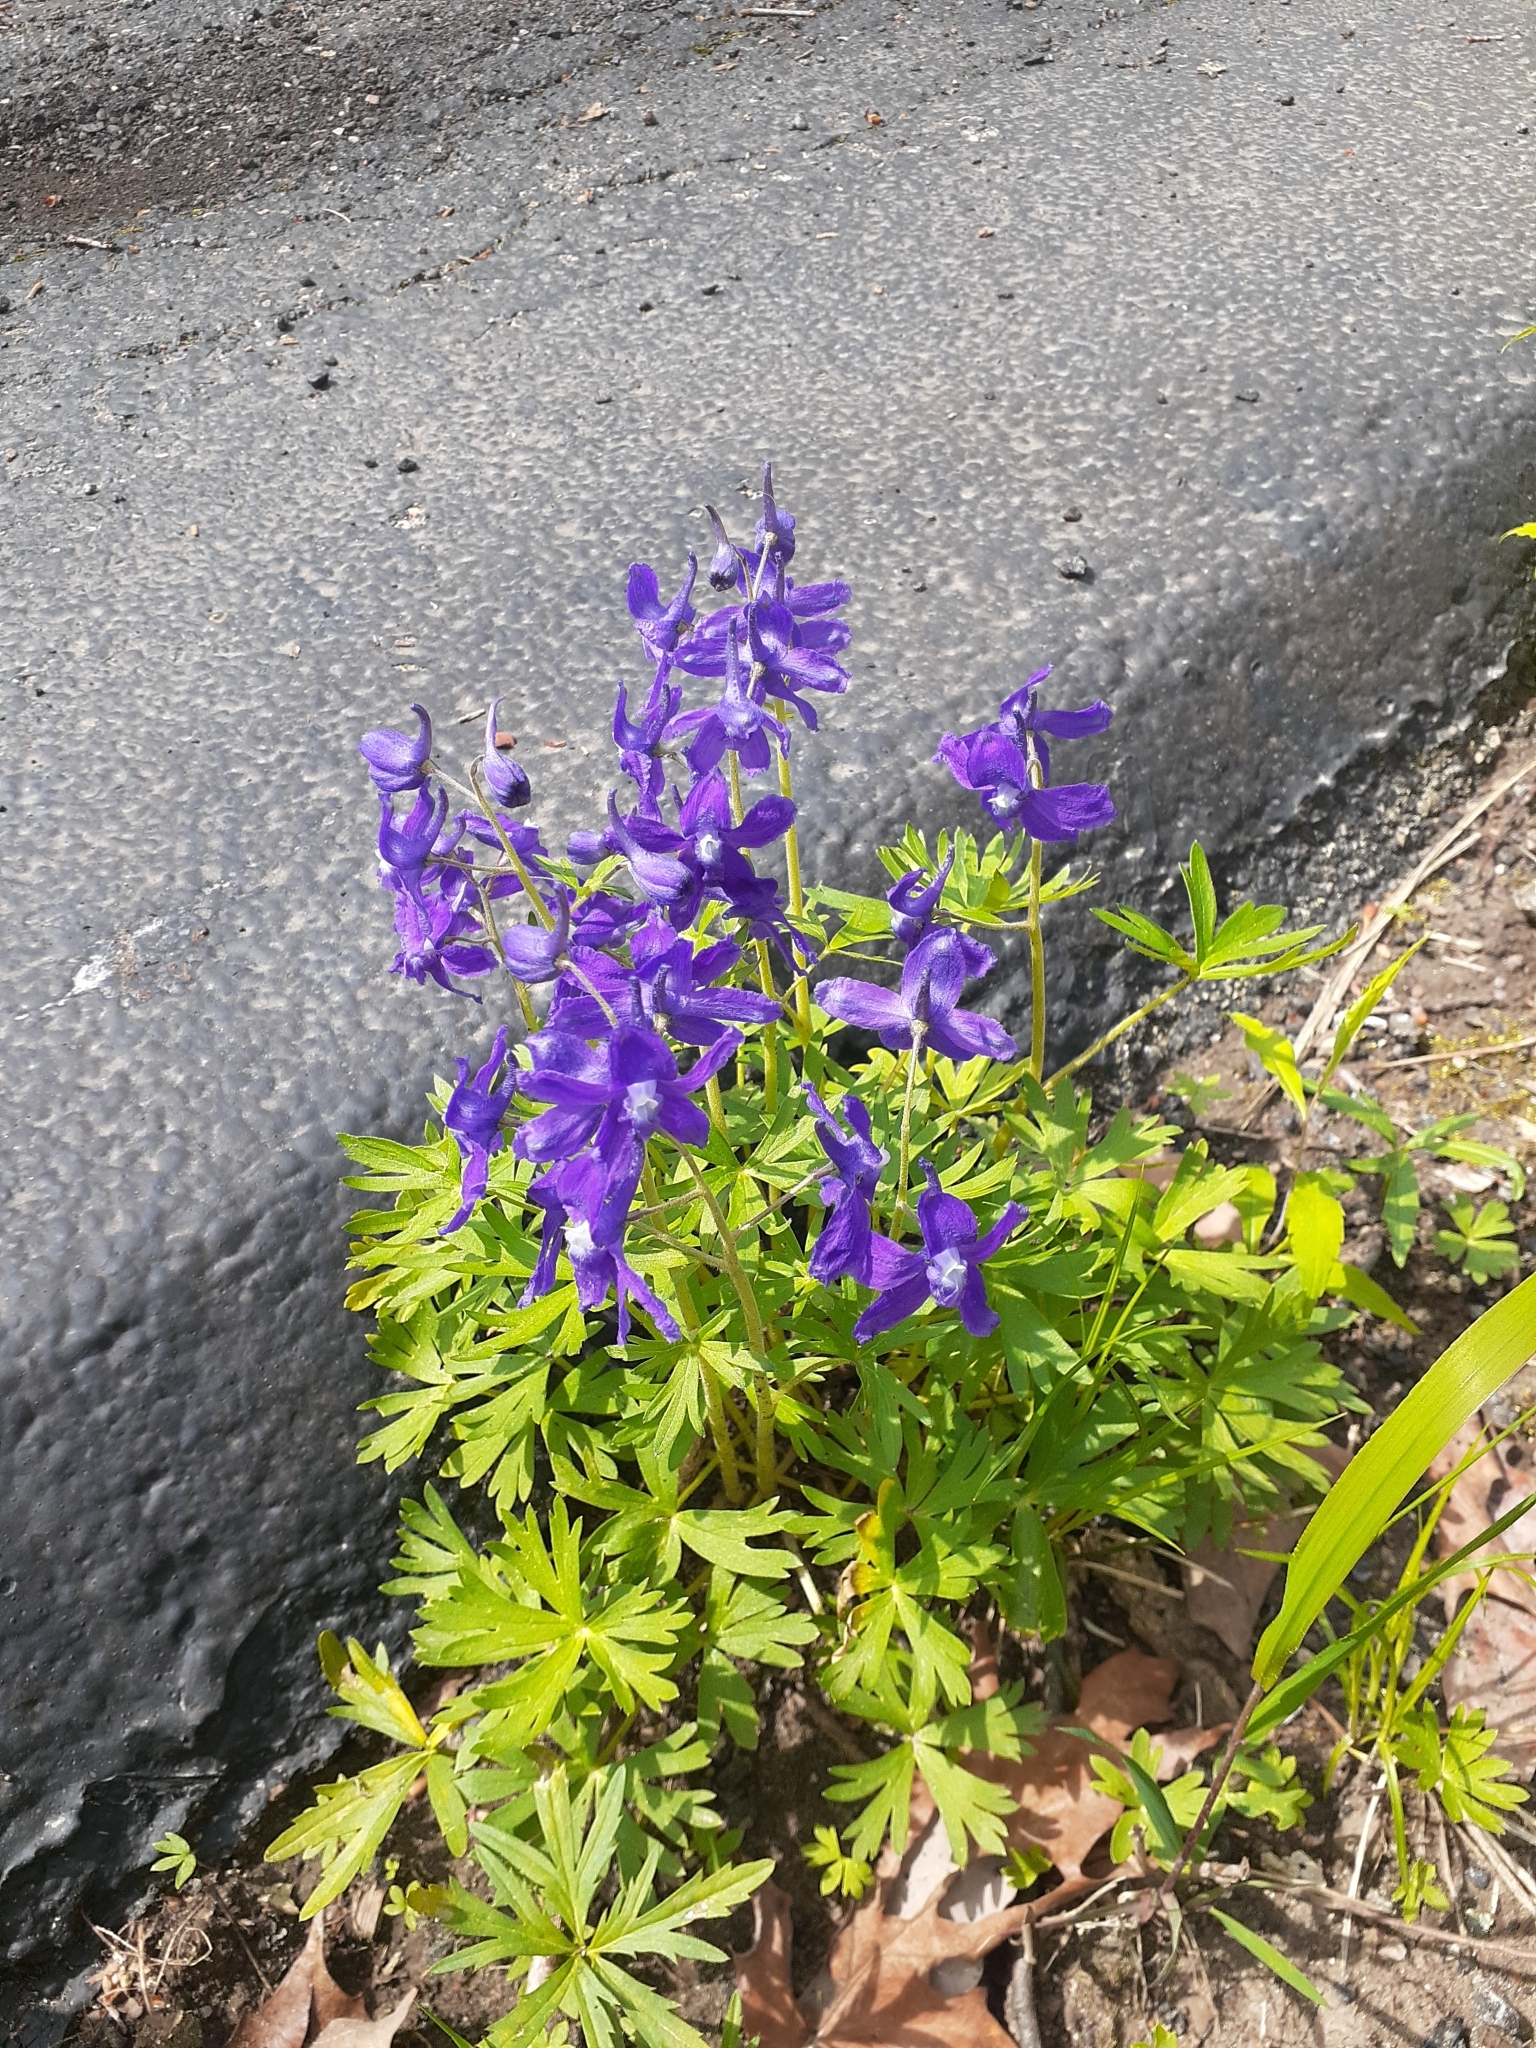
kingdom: Plantae
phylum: Tracheophyta
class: Magnoliopsida
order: Ranunculales
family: Ranunculaceae
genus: Delphinium
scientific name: Delphinium tricorne
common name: Dwarf larkspur
